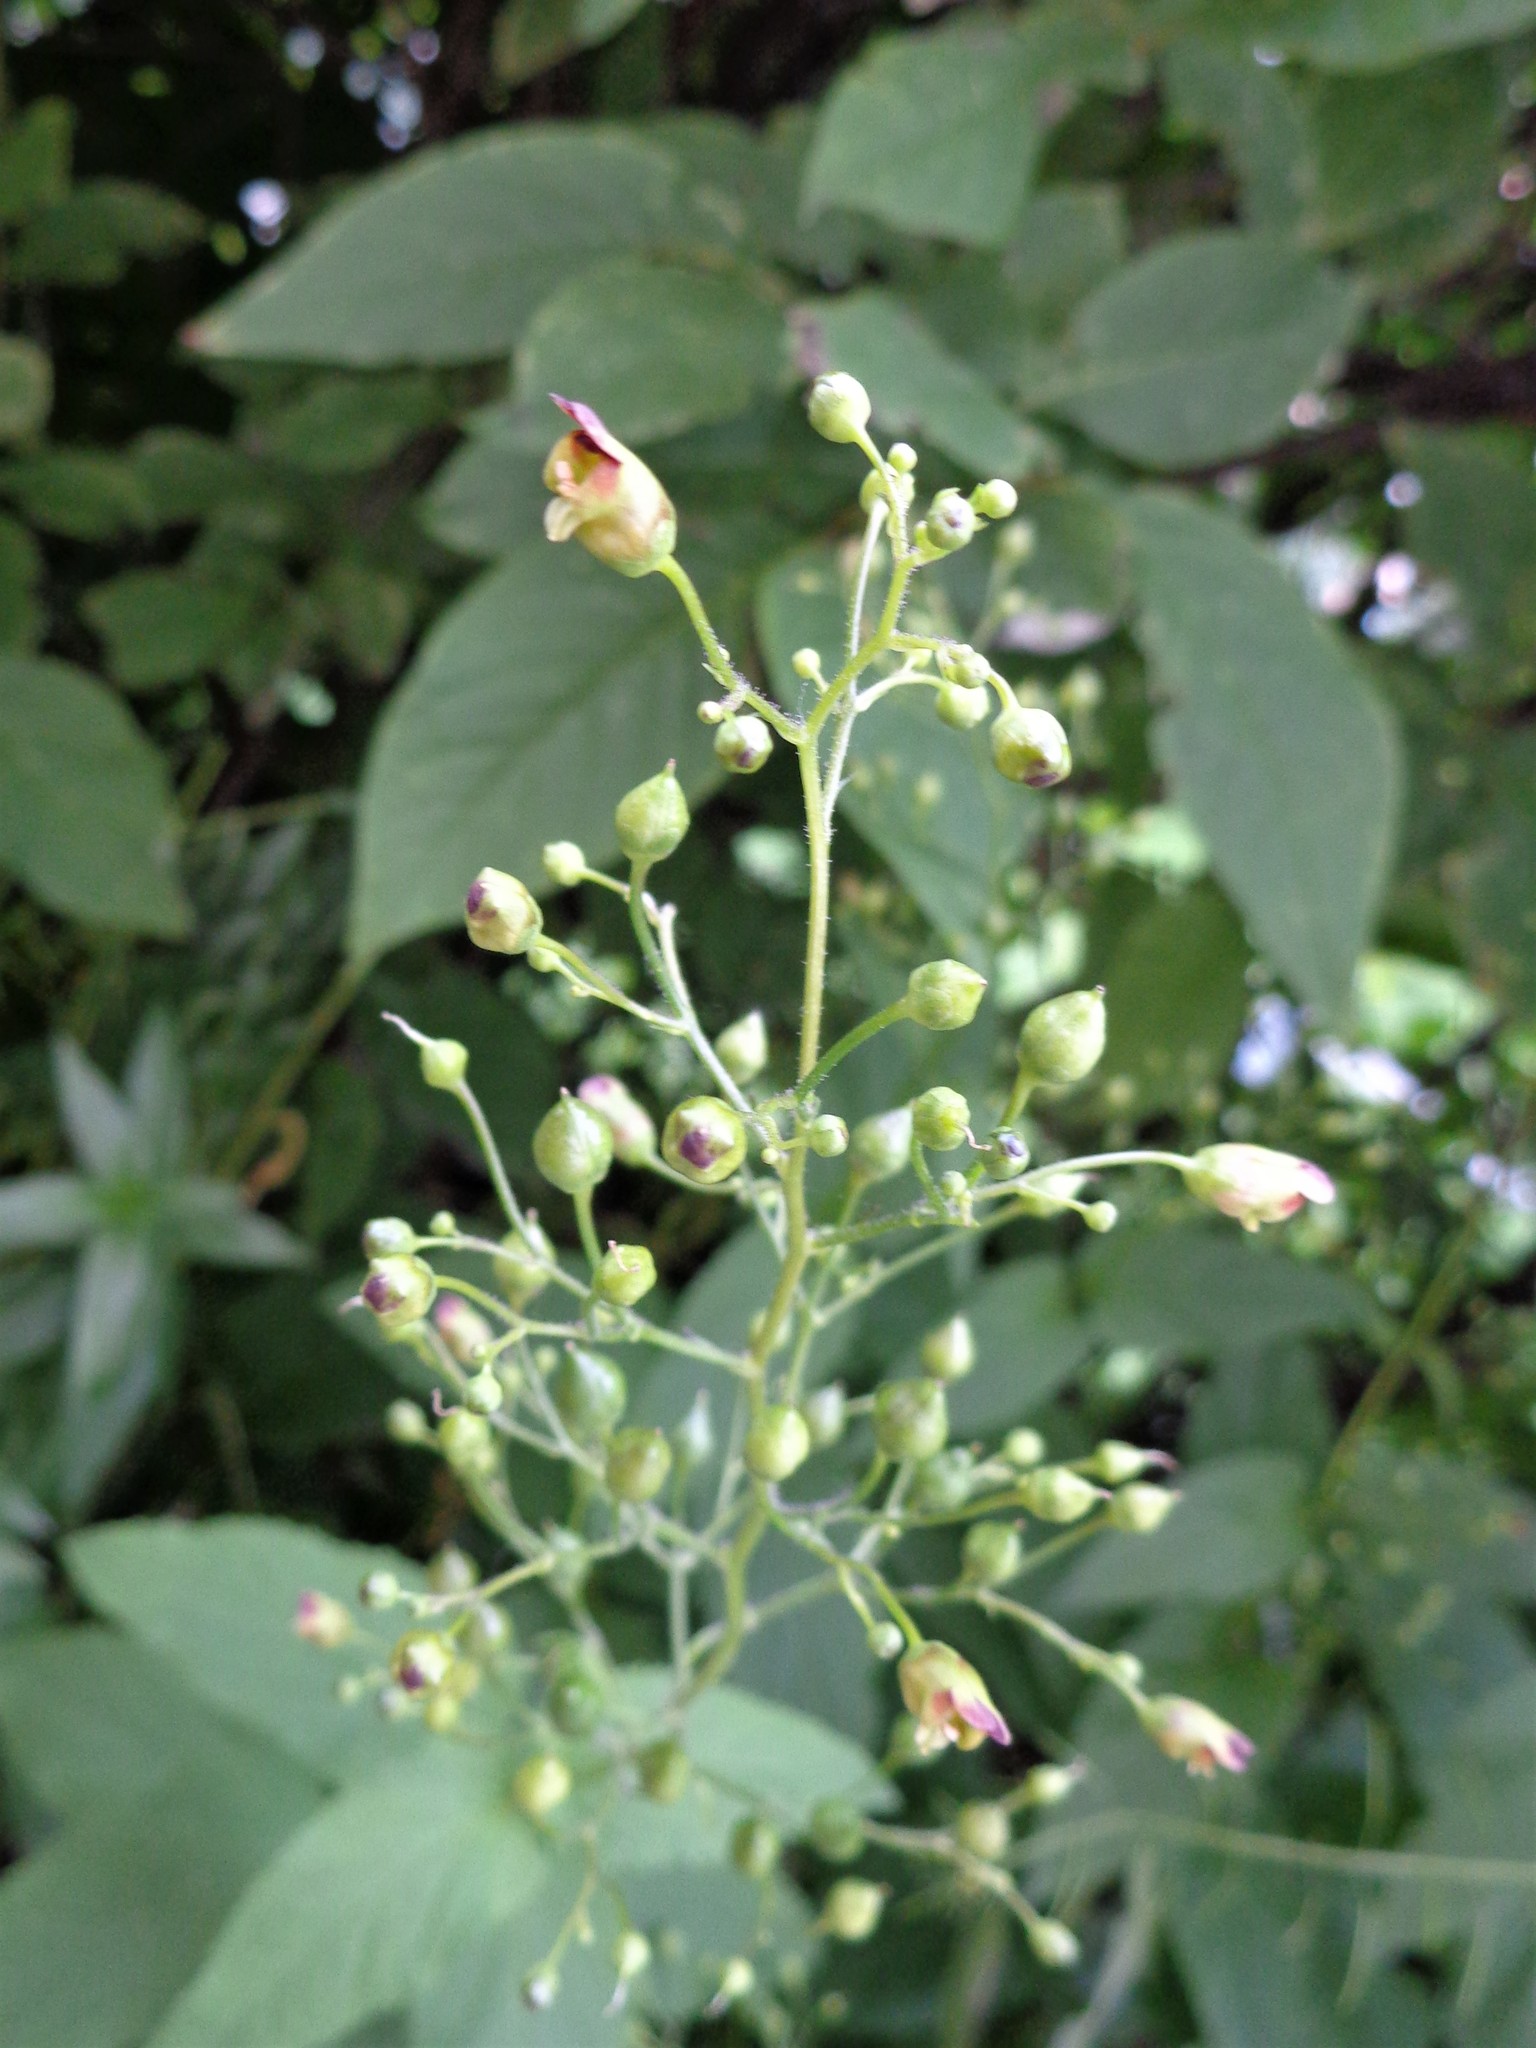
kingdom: Plantae
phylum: Tracheophyta
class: Magnoliopsida
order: Lamiales
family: Scrophulariaceae
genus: Scrophularia
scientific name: Scrophularia nodosa
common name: Common figwort
